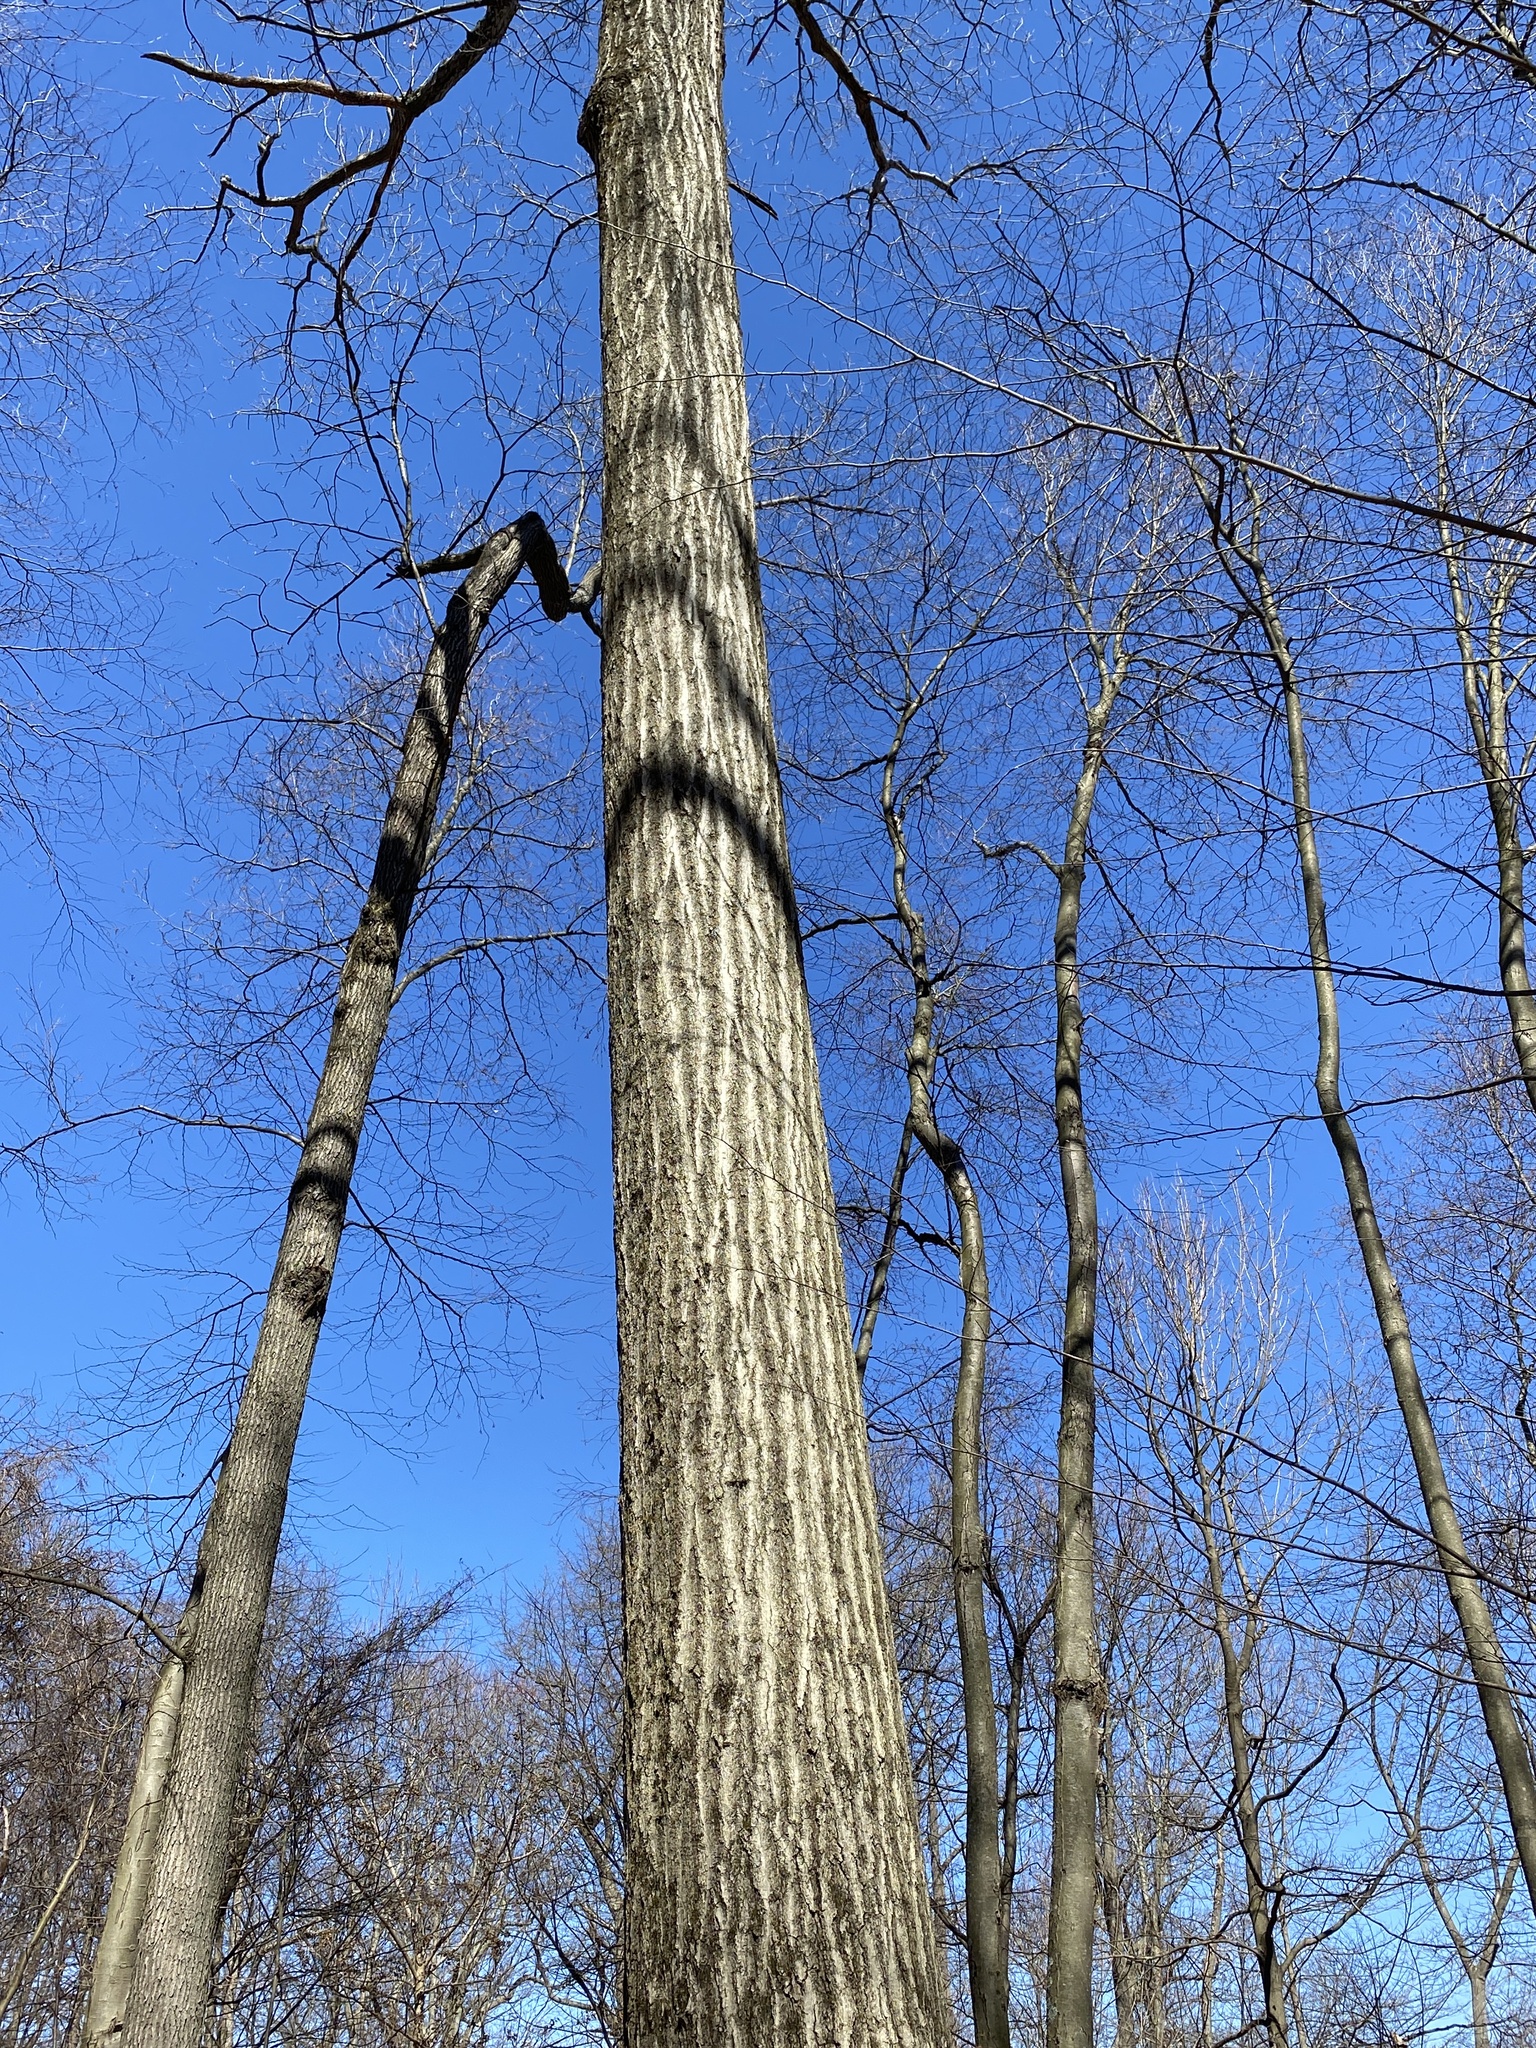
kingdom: Plantae
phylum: Tracheophyta
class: Magnoliopsida
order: Fagales
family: Fagaceae
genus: Quercus
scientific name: Quercus rubra
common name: Red oak
